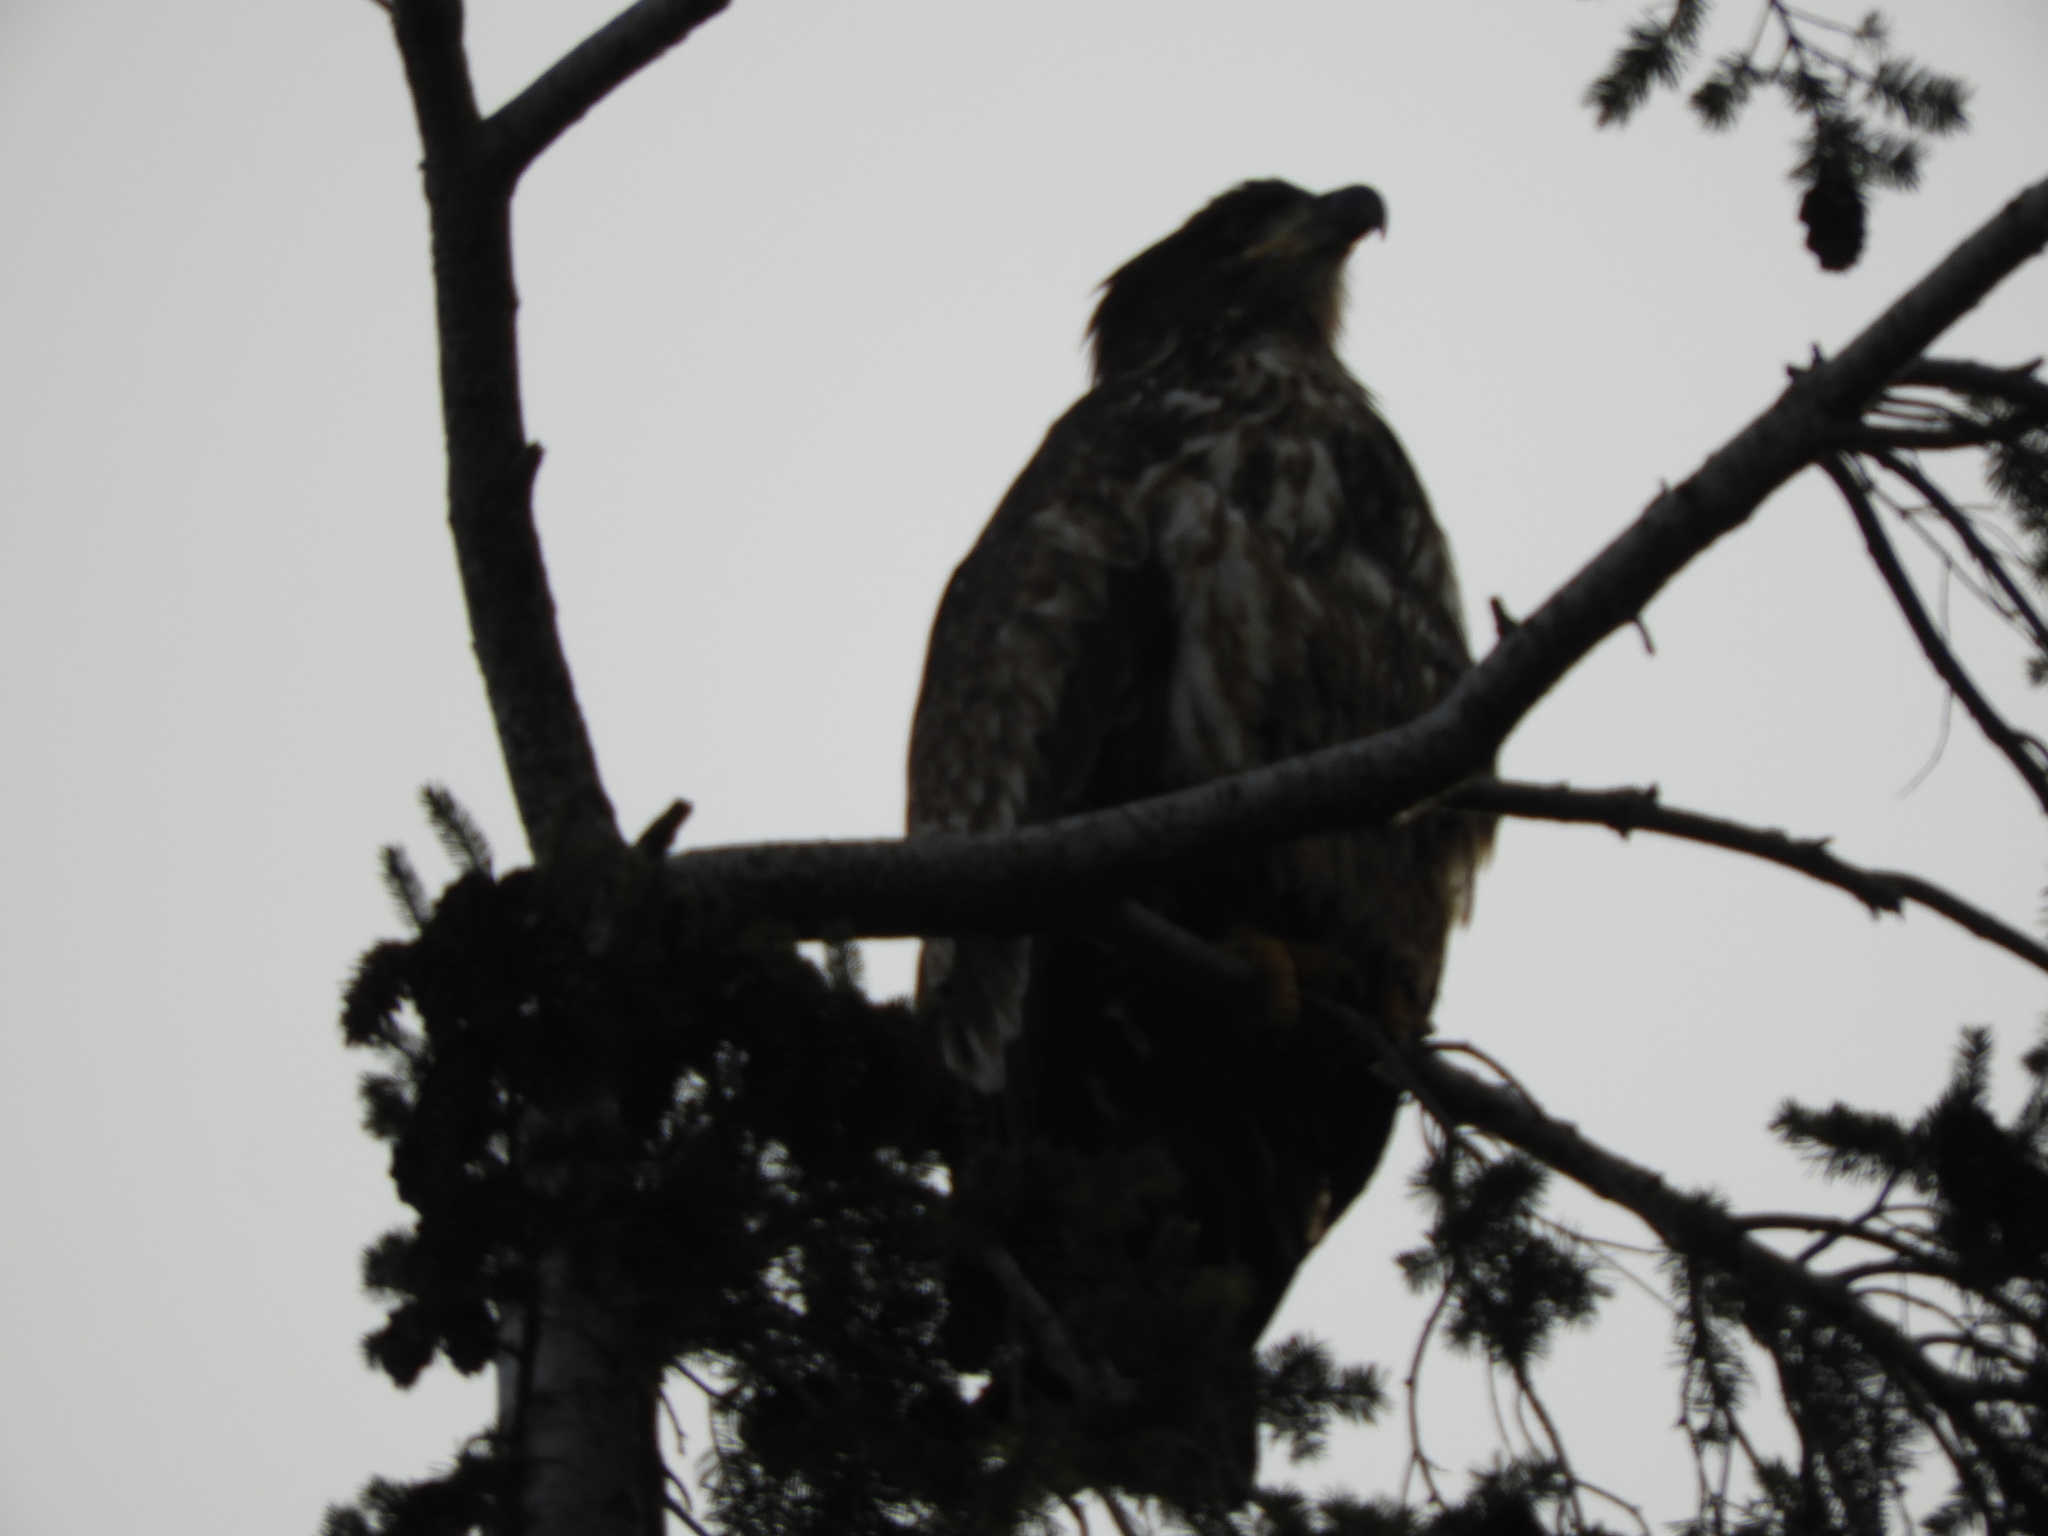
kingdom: Animalia
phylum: Chordata
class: Aves
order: Accipitriformes
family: Accipitridae
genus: Haliaeetus
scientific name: Haliaeetus leucocephalus
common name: Bald eagle
